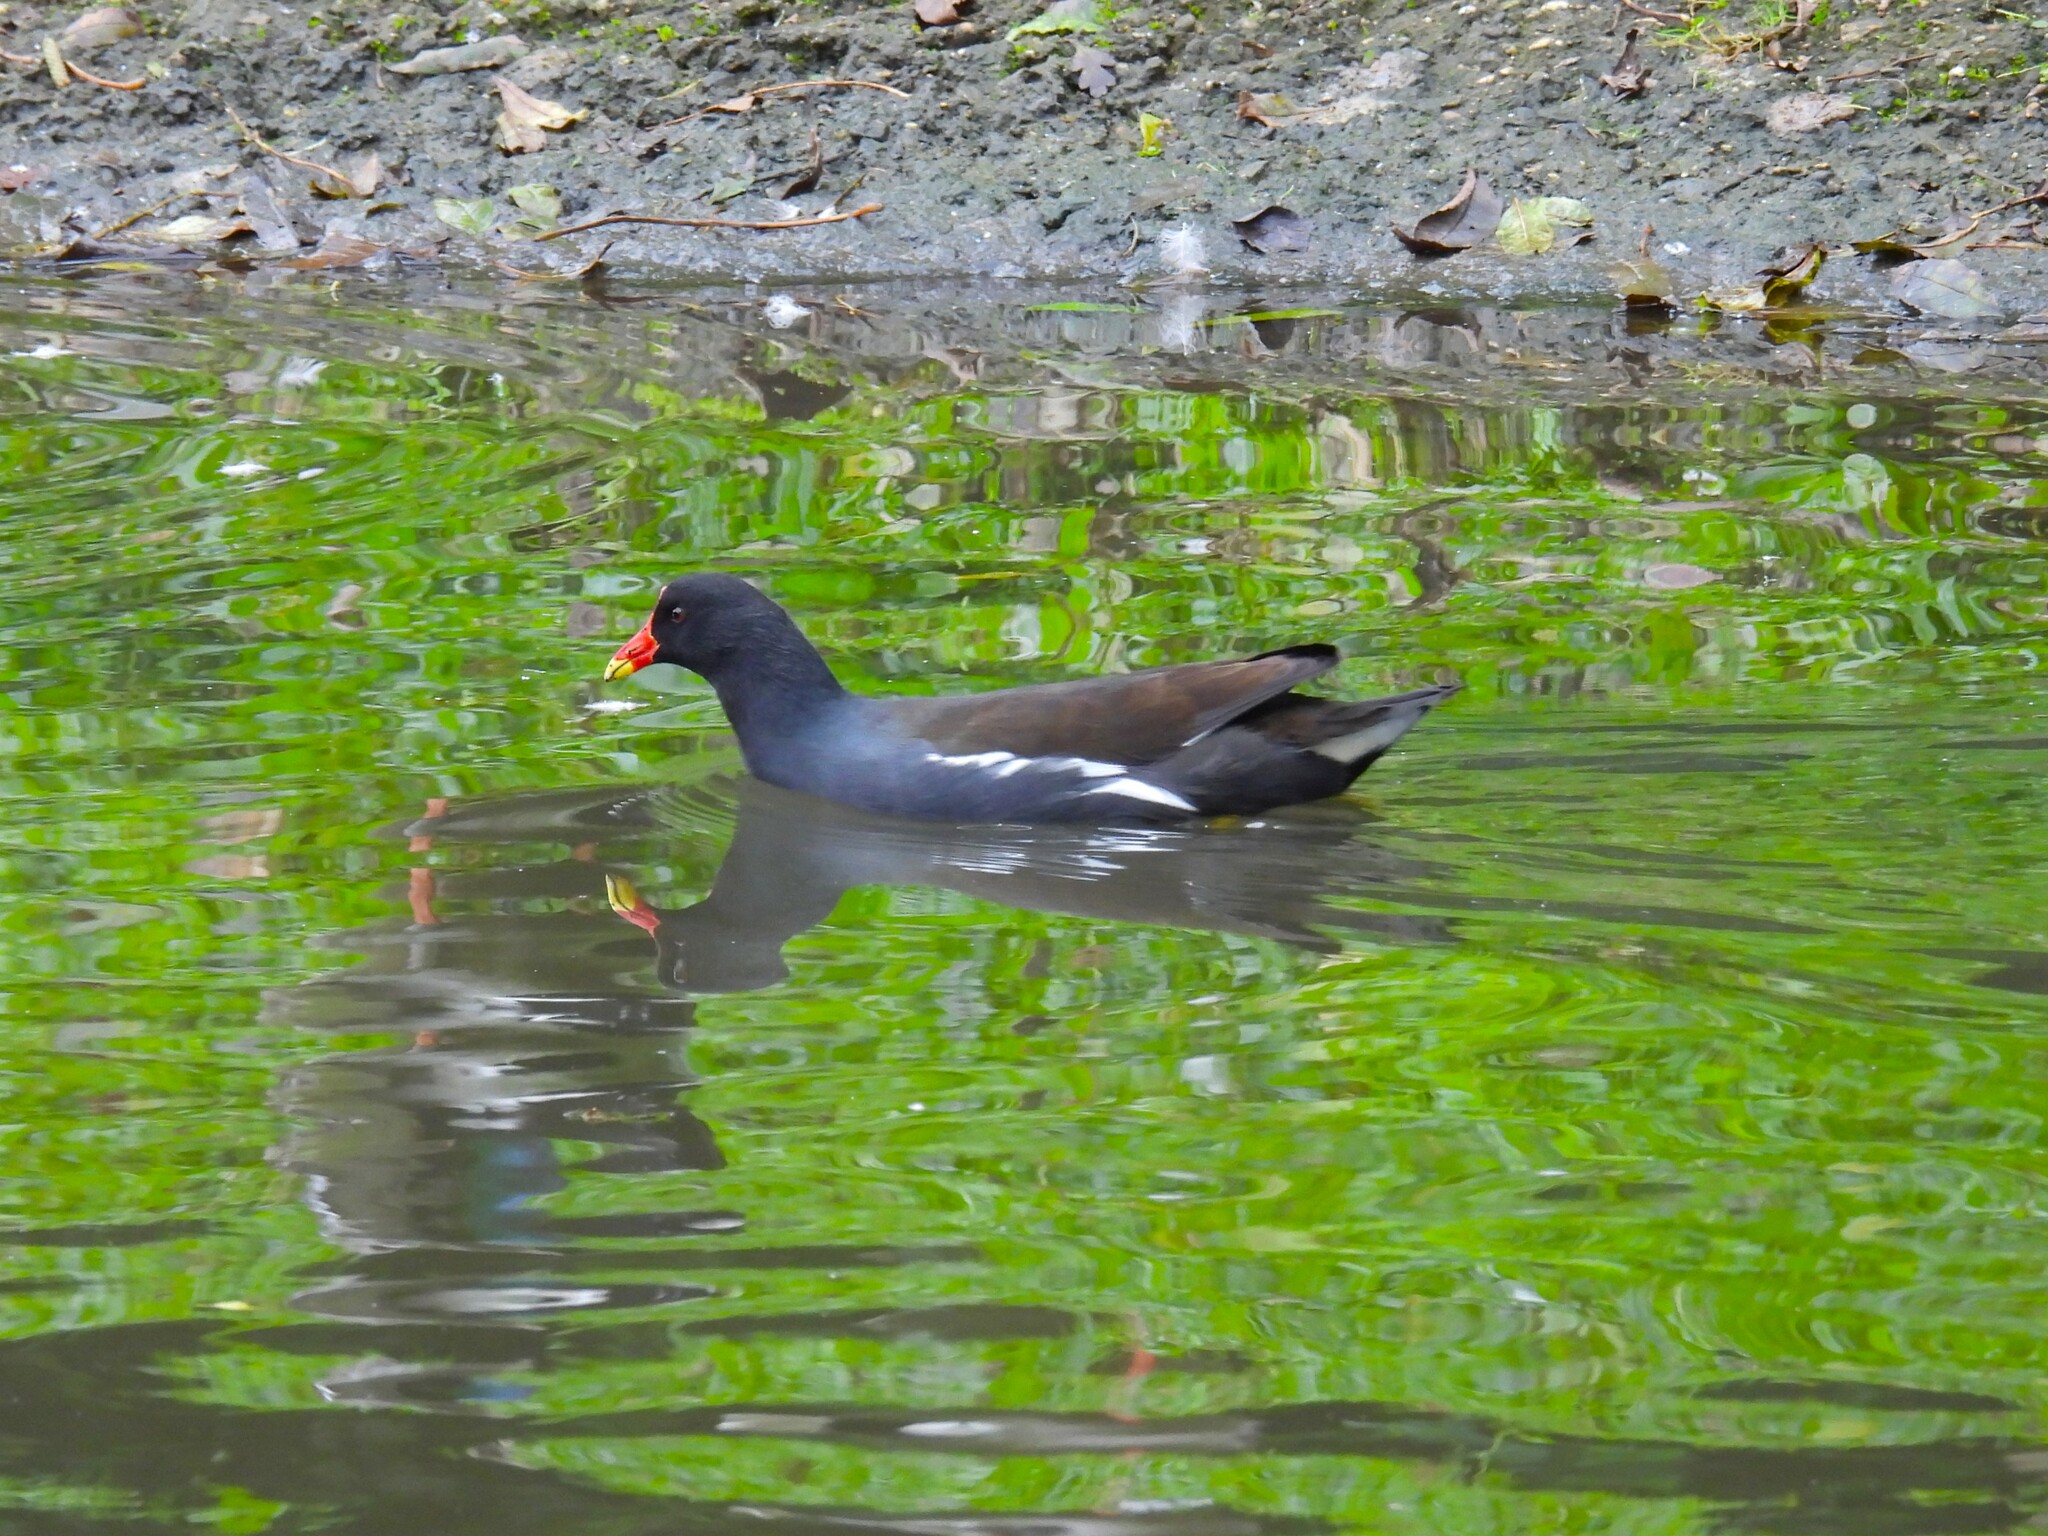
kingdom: Animalia
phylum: Chordata
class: Aves
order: Gruiformes
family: Rallidae
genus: Gallinula
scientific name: Gallinula chloropus
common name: Common moorhen
